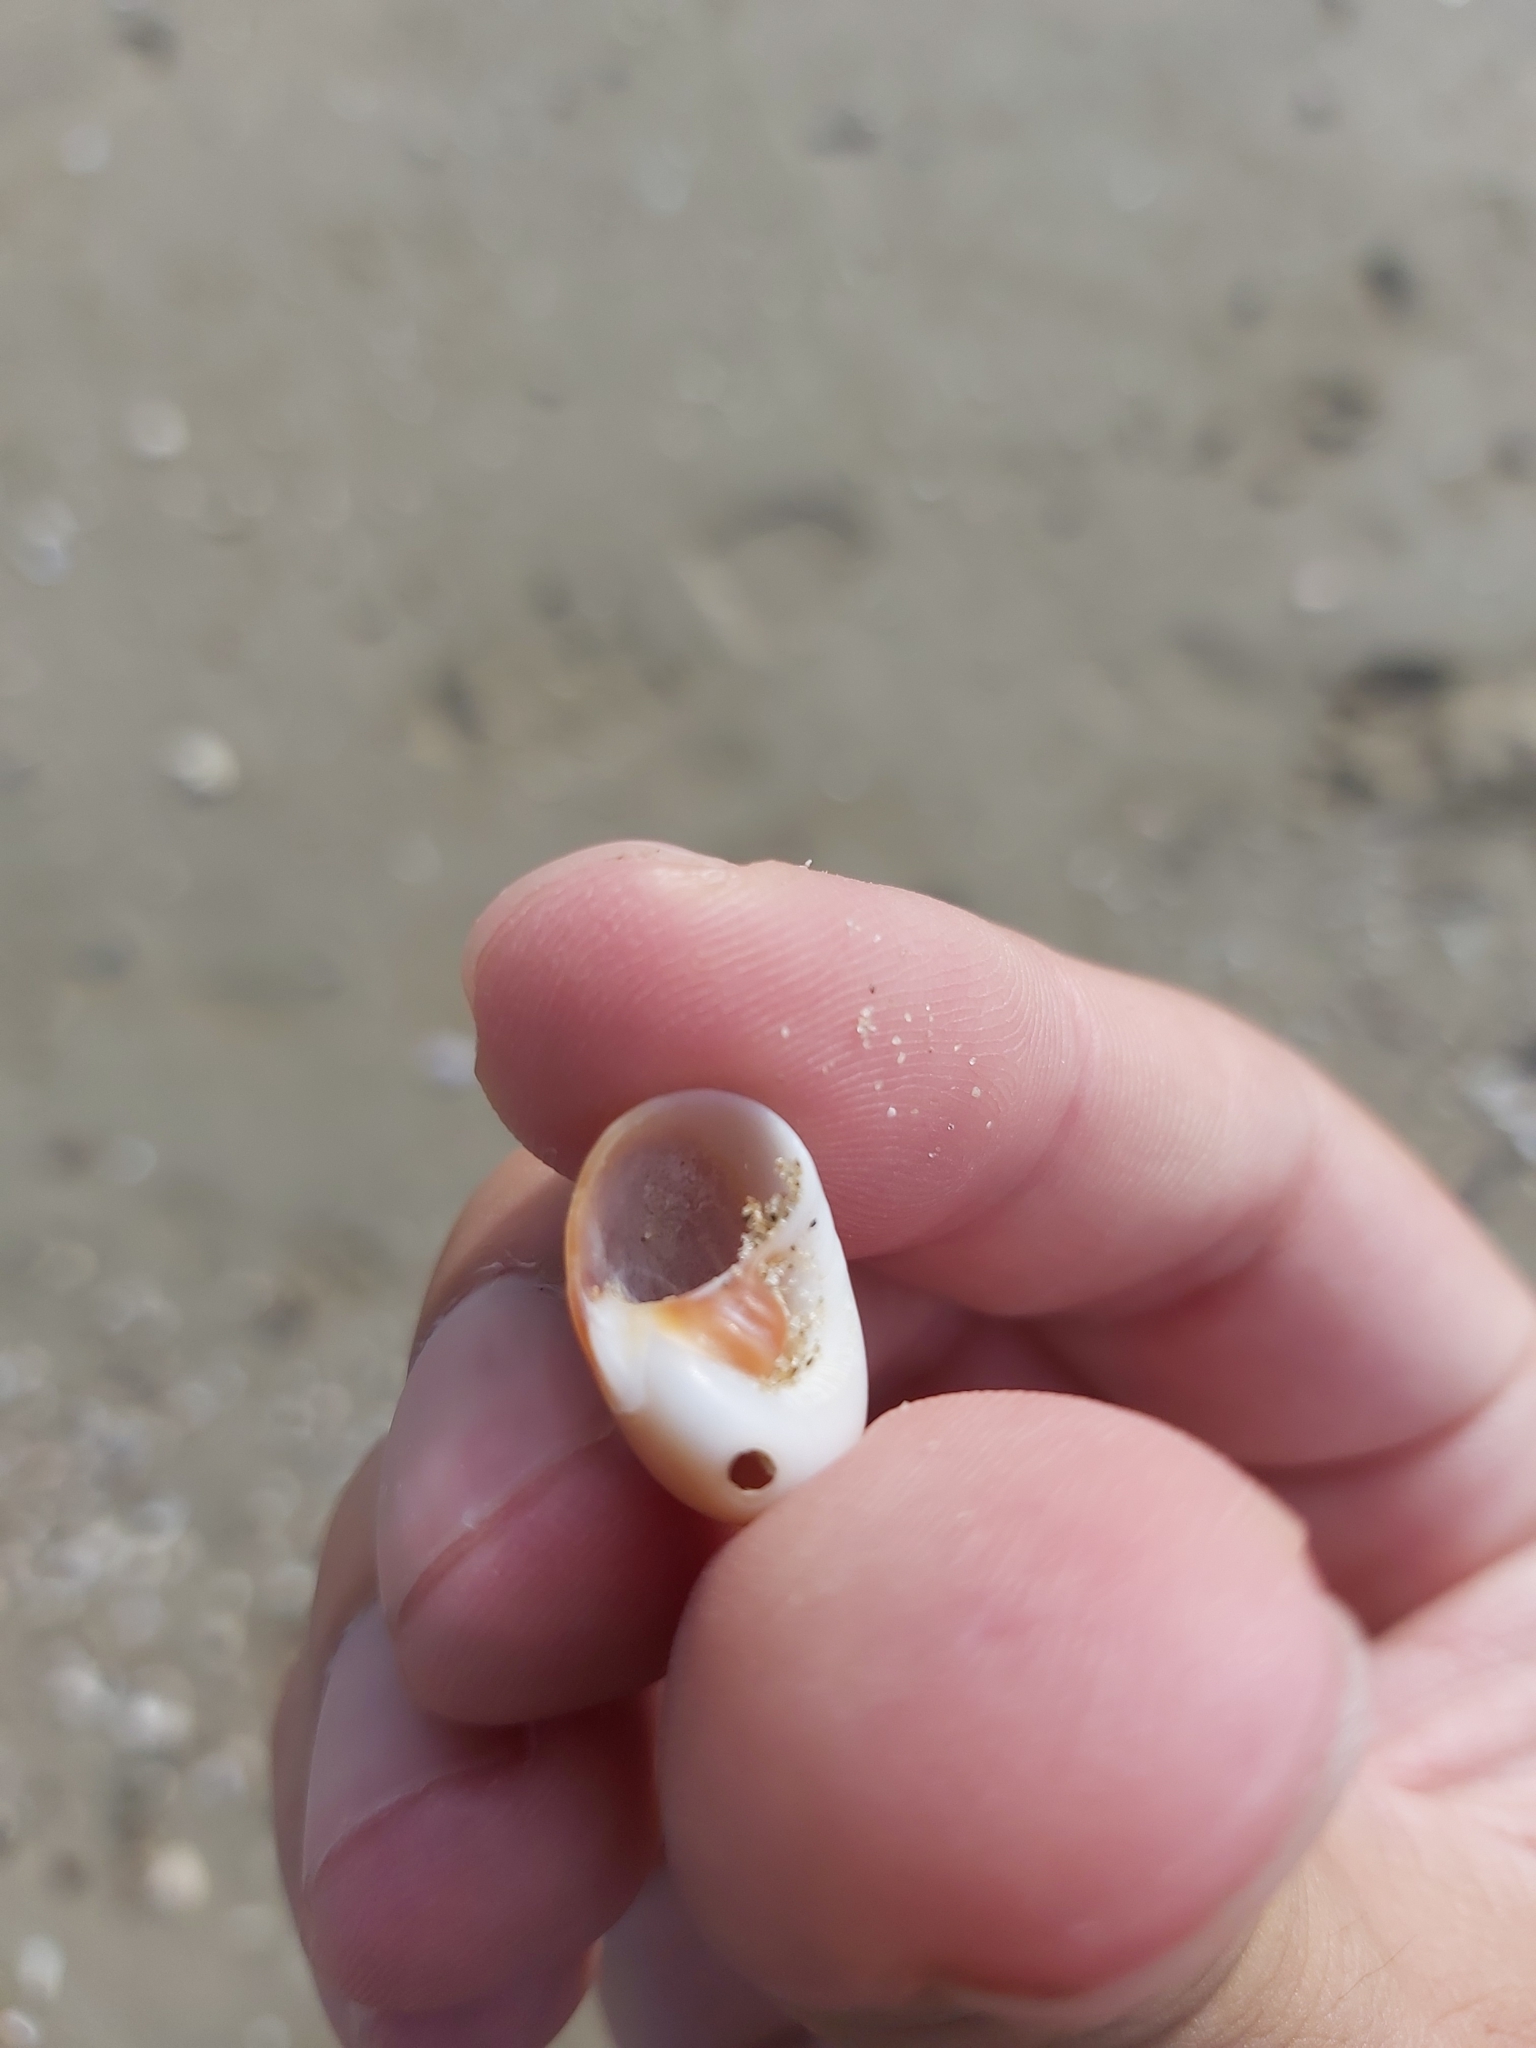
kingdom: Animalia
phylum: Mollusca
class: Gastropoda
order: Littorinimorpha
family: Naticidae
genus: Neverita
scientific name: Neverita didyma
